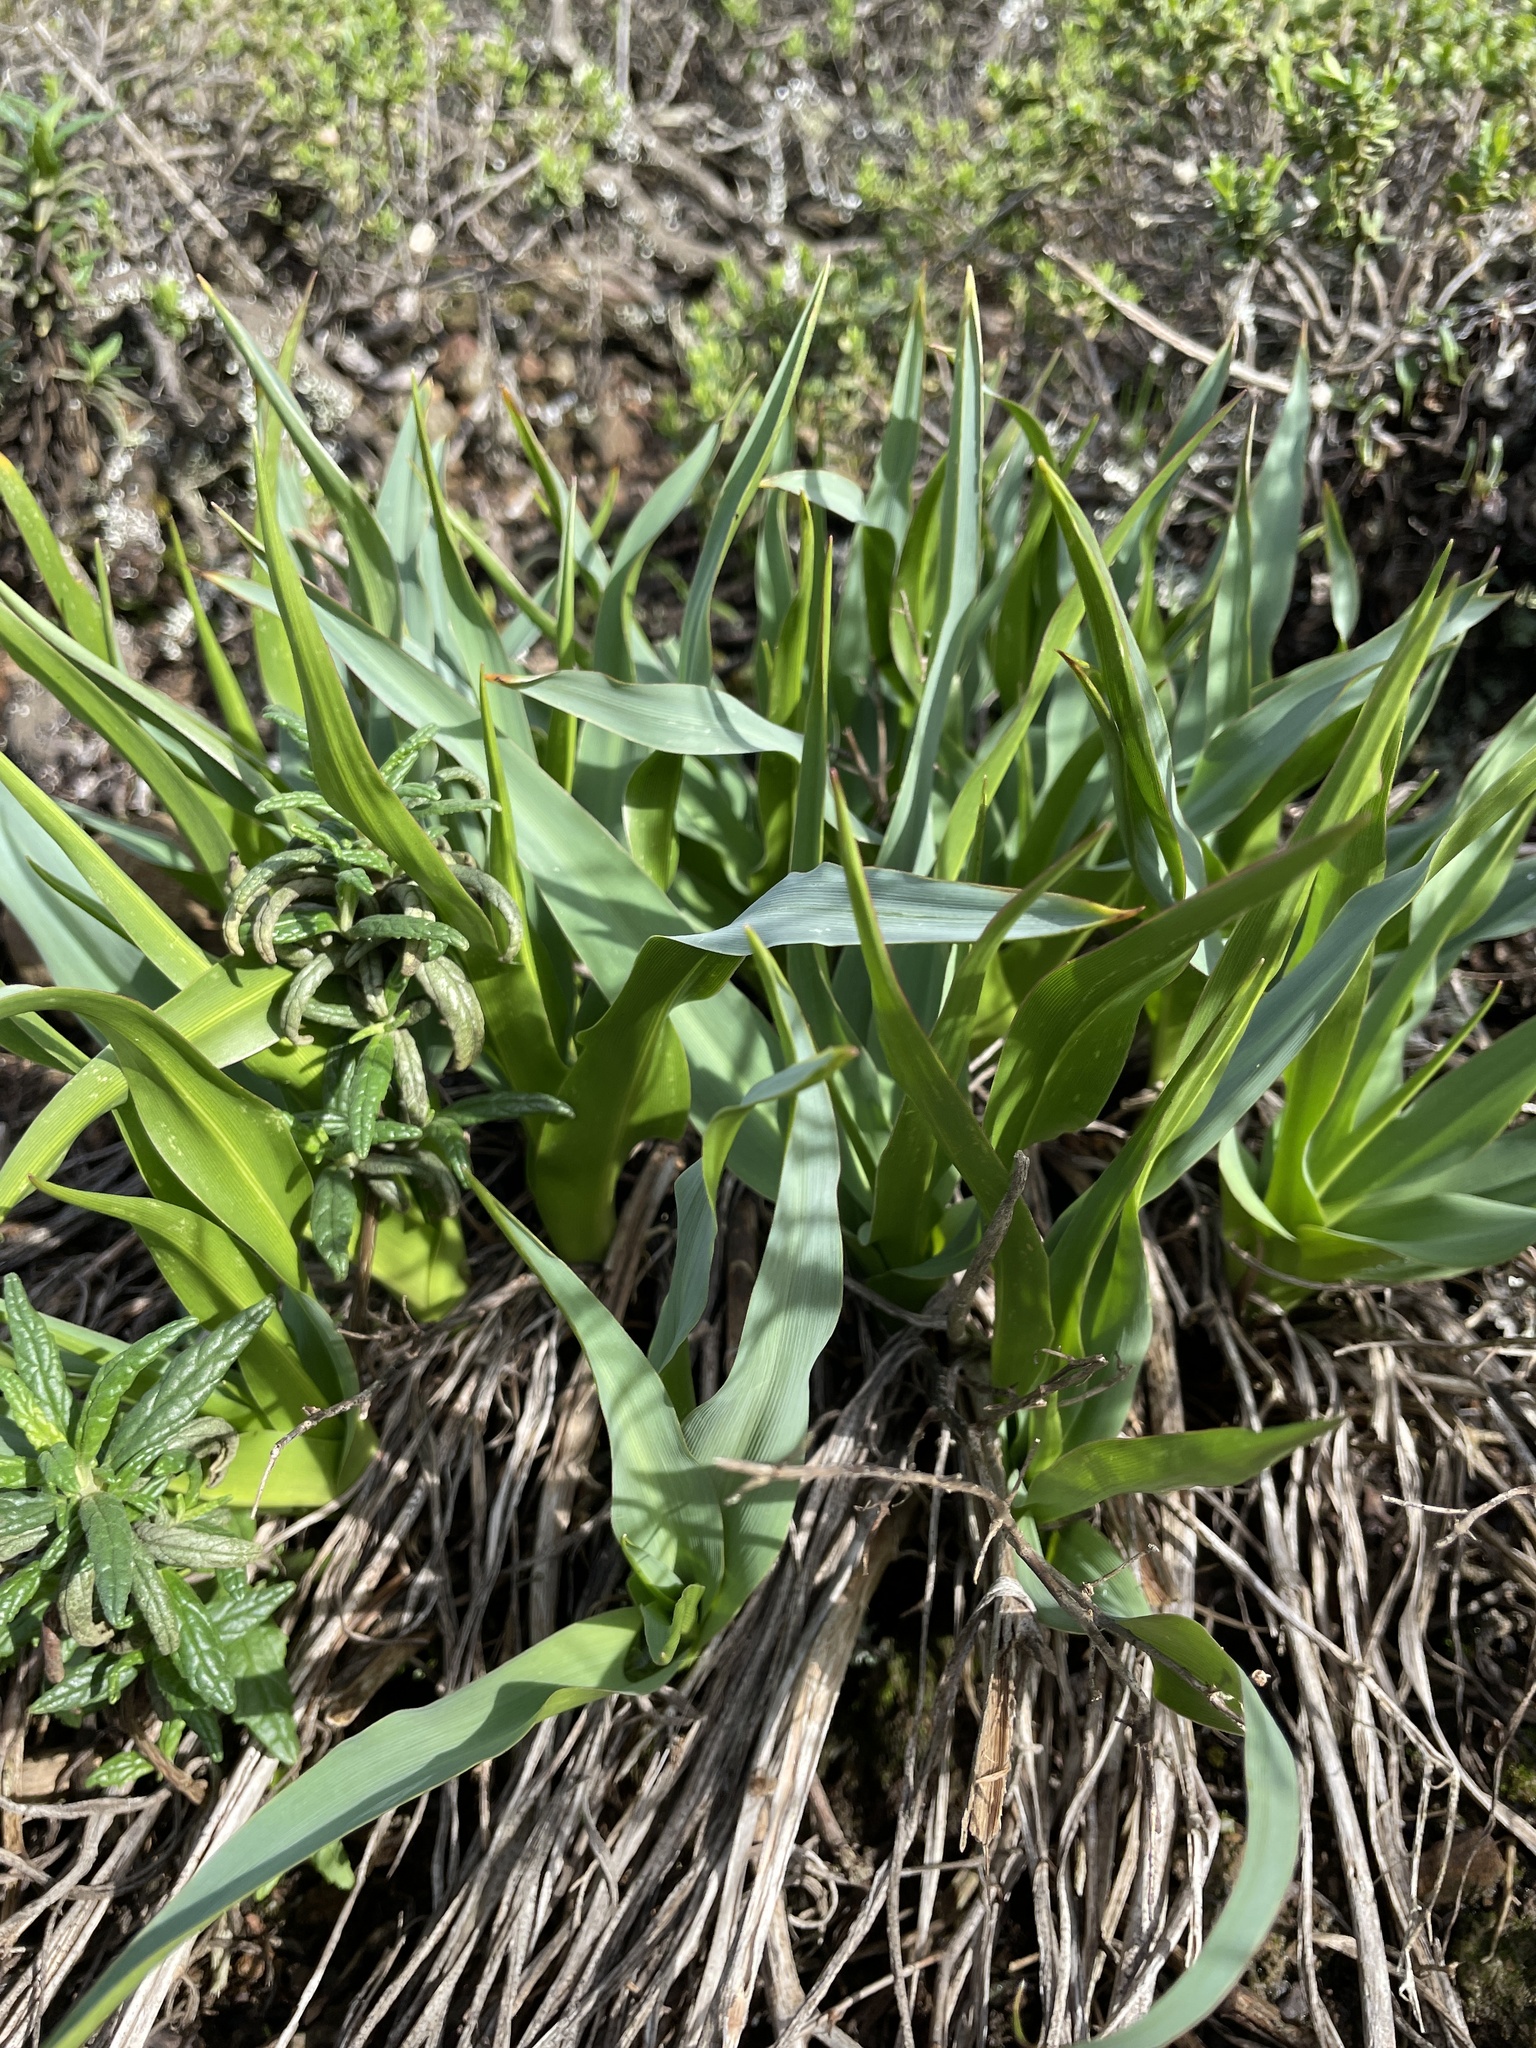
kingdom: Plantae
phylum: Tracheophyta
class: Liliopsida
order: Asparagales
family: Asparagaceae
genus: Chlorogalum
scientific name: Chlorogalum pomeridianum
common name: Amole
